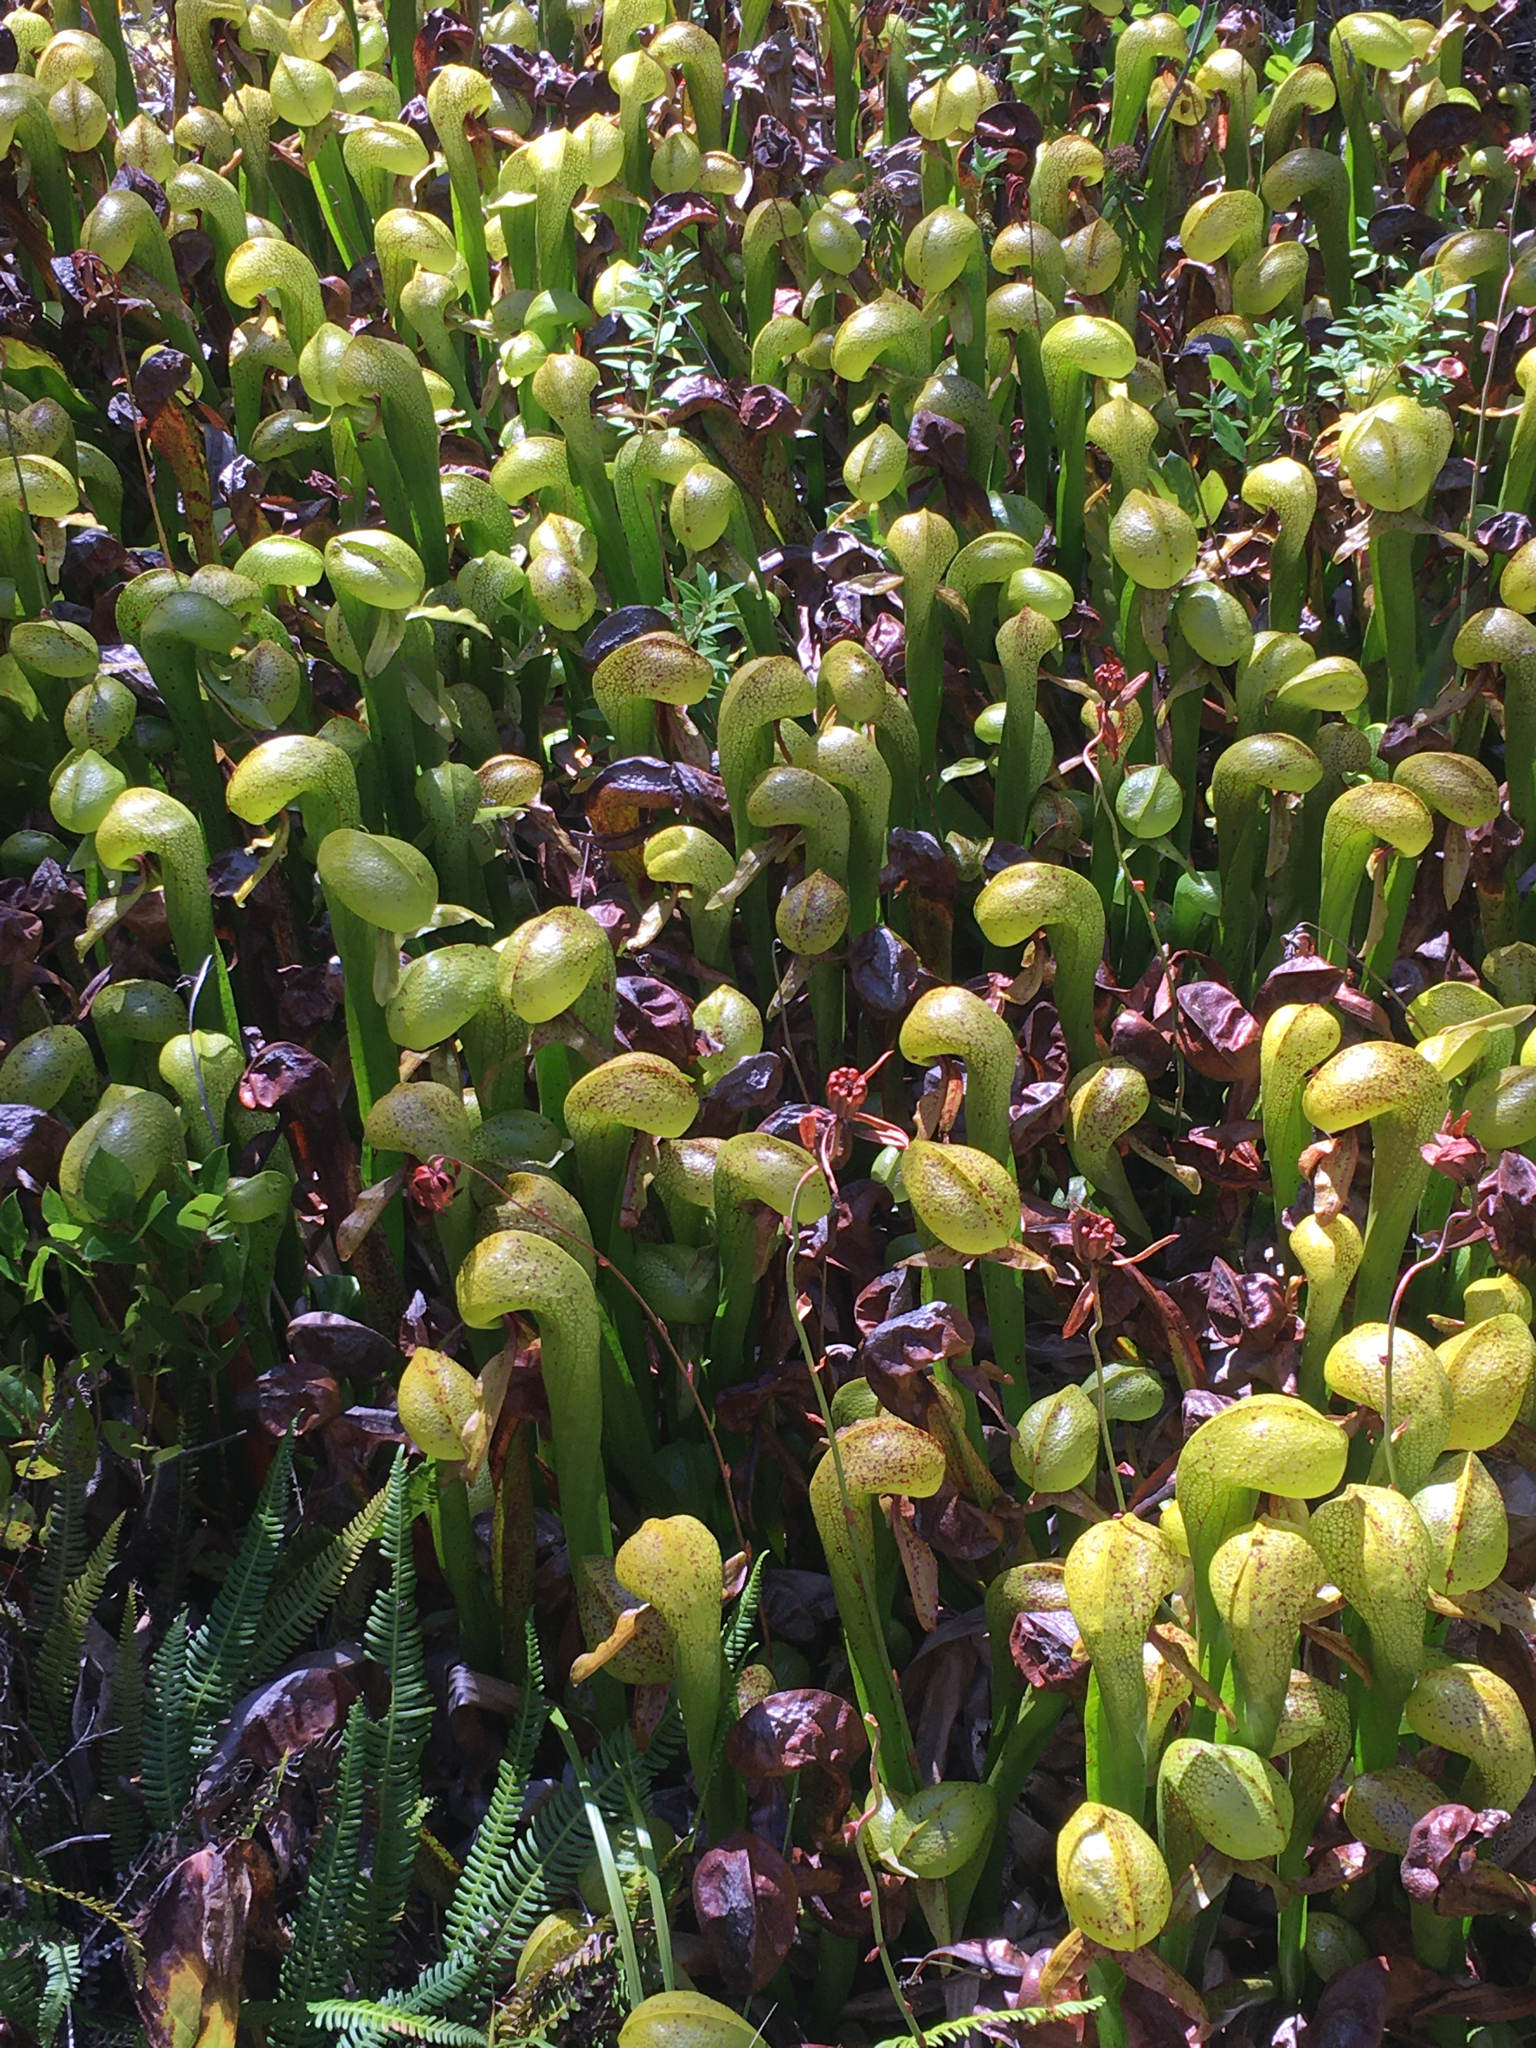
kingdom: Plantae
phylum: Tracheophyta
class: Magnoliopsida
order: Ericales
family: Sarraceniaceae
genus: Darlingtonia
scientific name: Darlingtonia californica
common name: California pitcher plant
